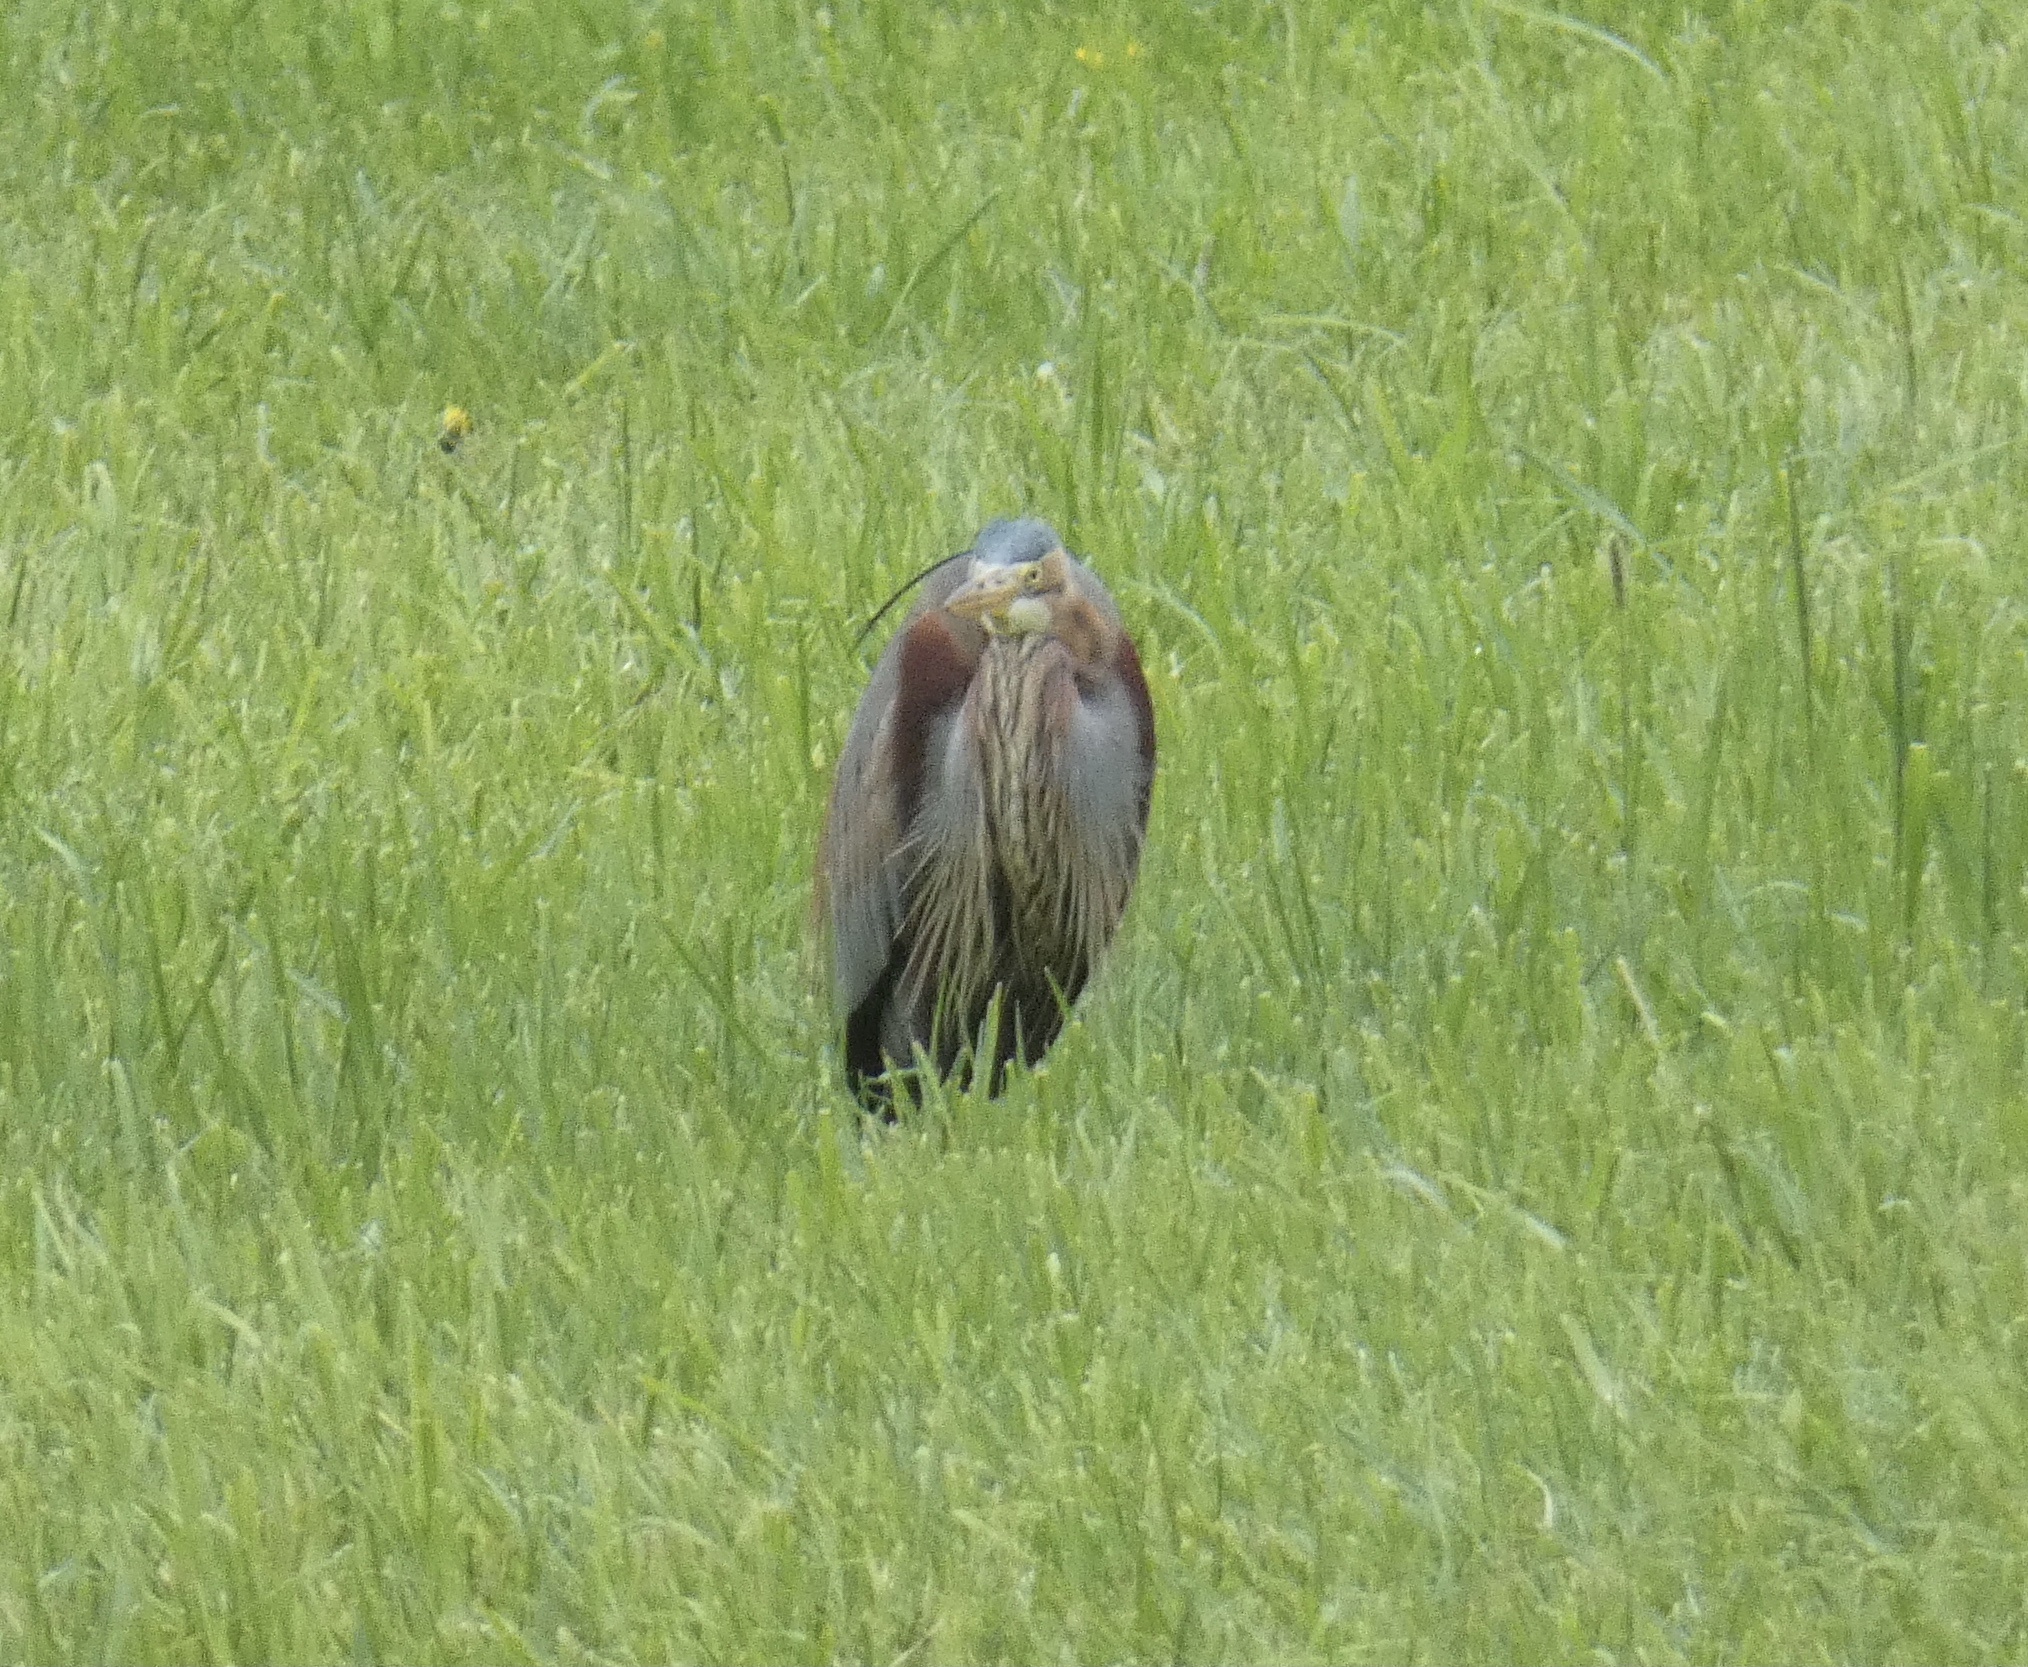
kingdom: Animalia
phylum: Chordata
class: Aves
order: Pelecaniformes
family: Ardeidae
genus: Ardea
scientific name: Ardea purpurea
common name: Purple heron
